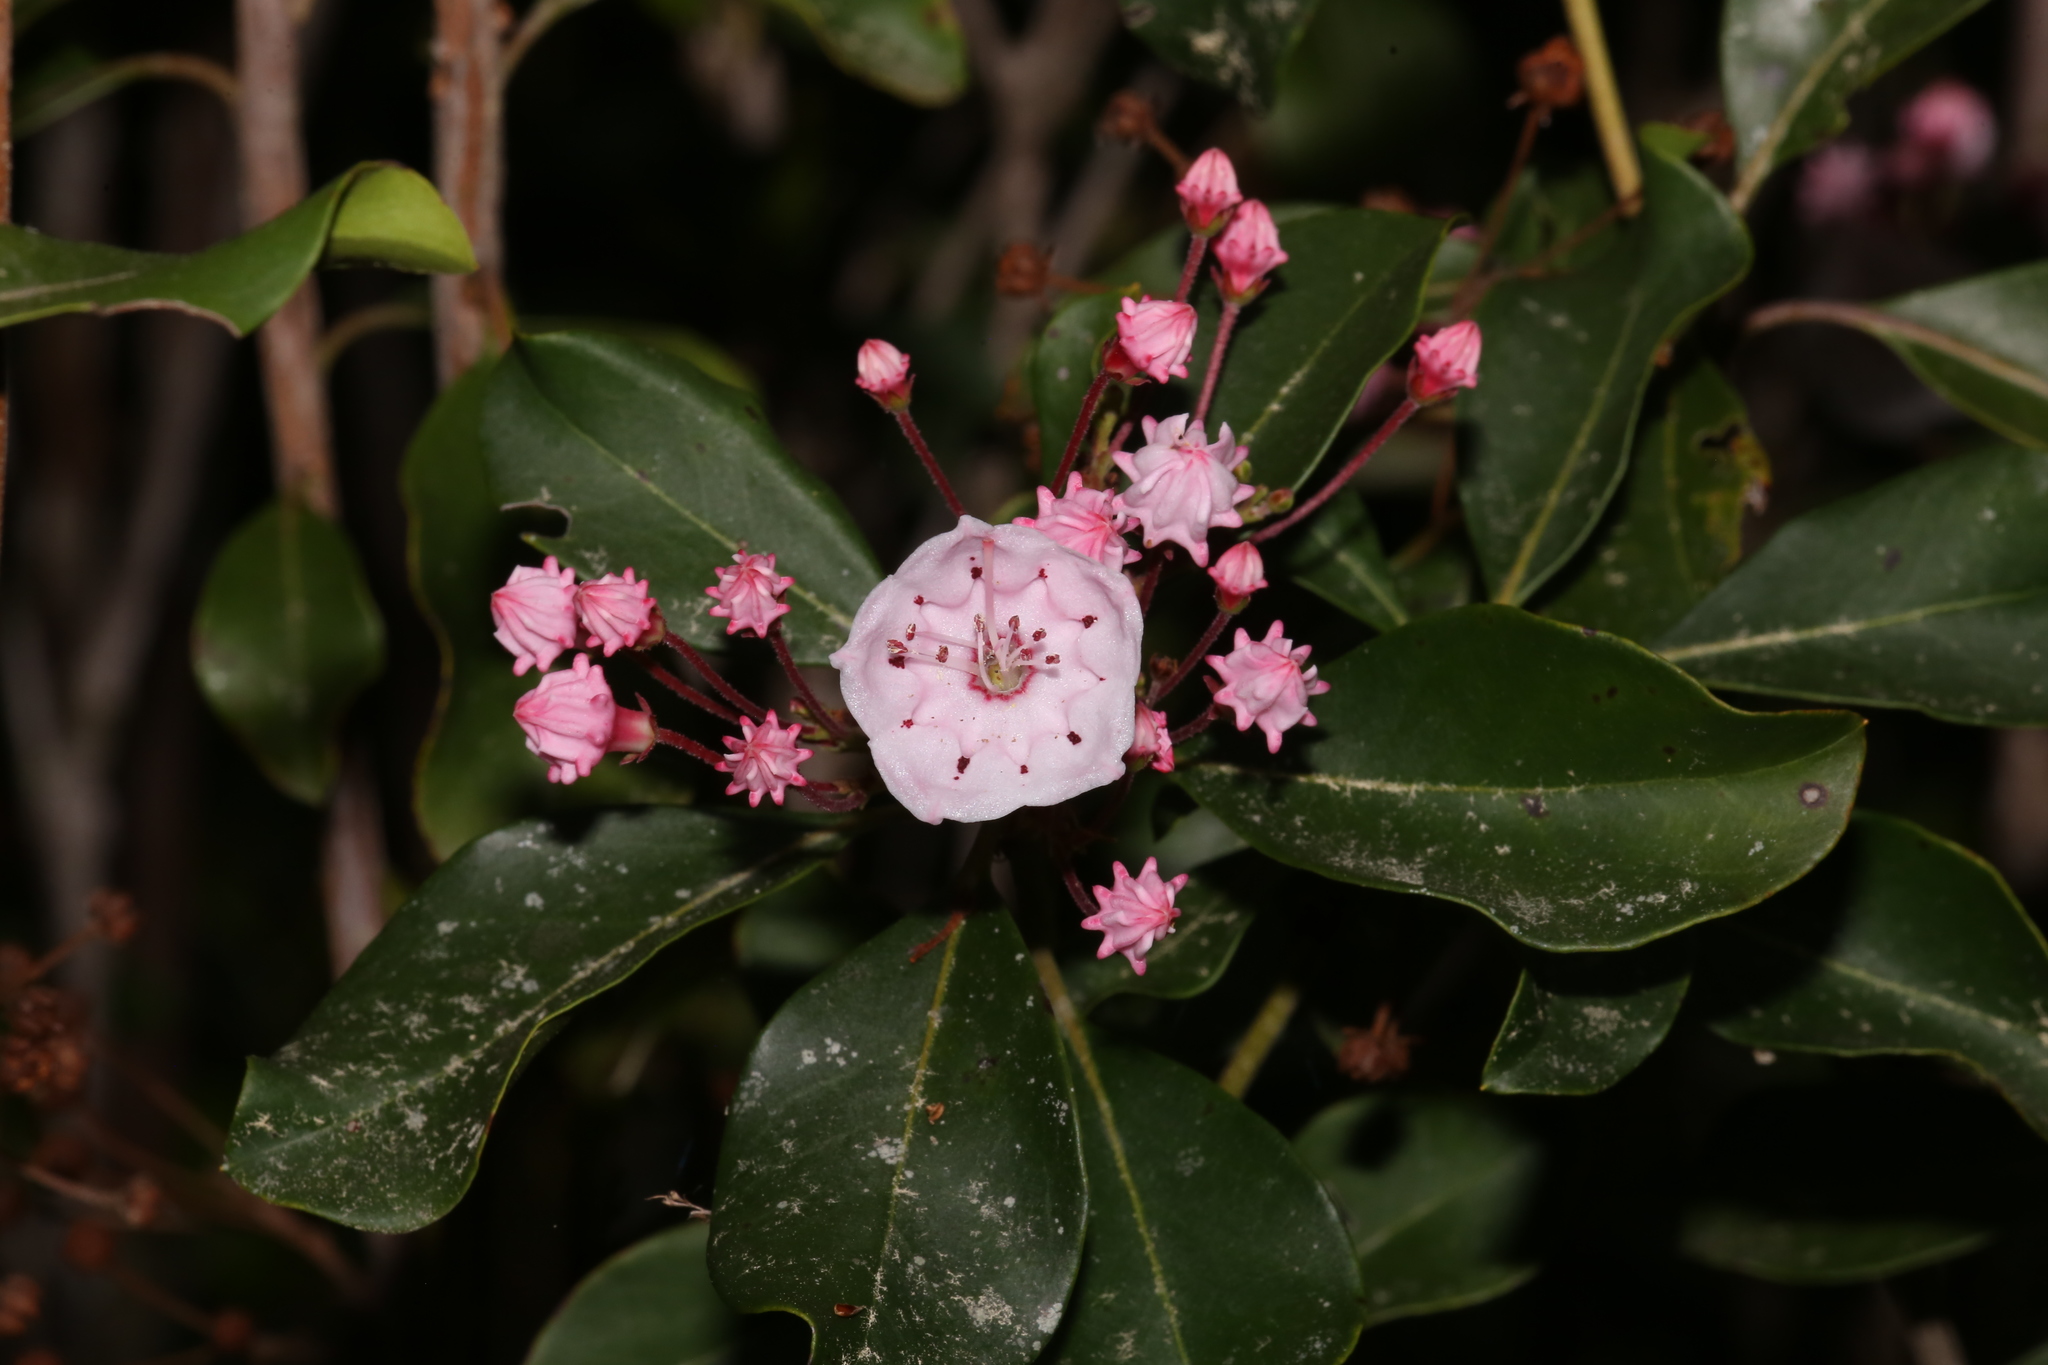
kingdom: Plantae
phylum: Tracheophyta
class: Magnoliopsida
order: Ericales
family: Ericaceae
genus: Kalmia
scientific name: Kalmia latifolia
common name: Mountain-laurel
